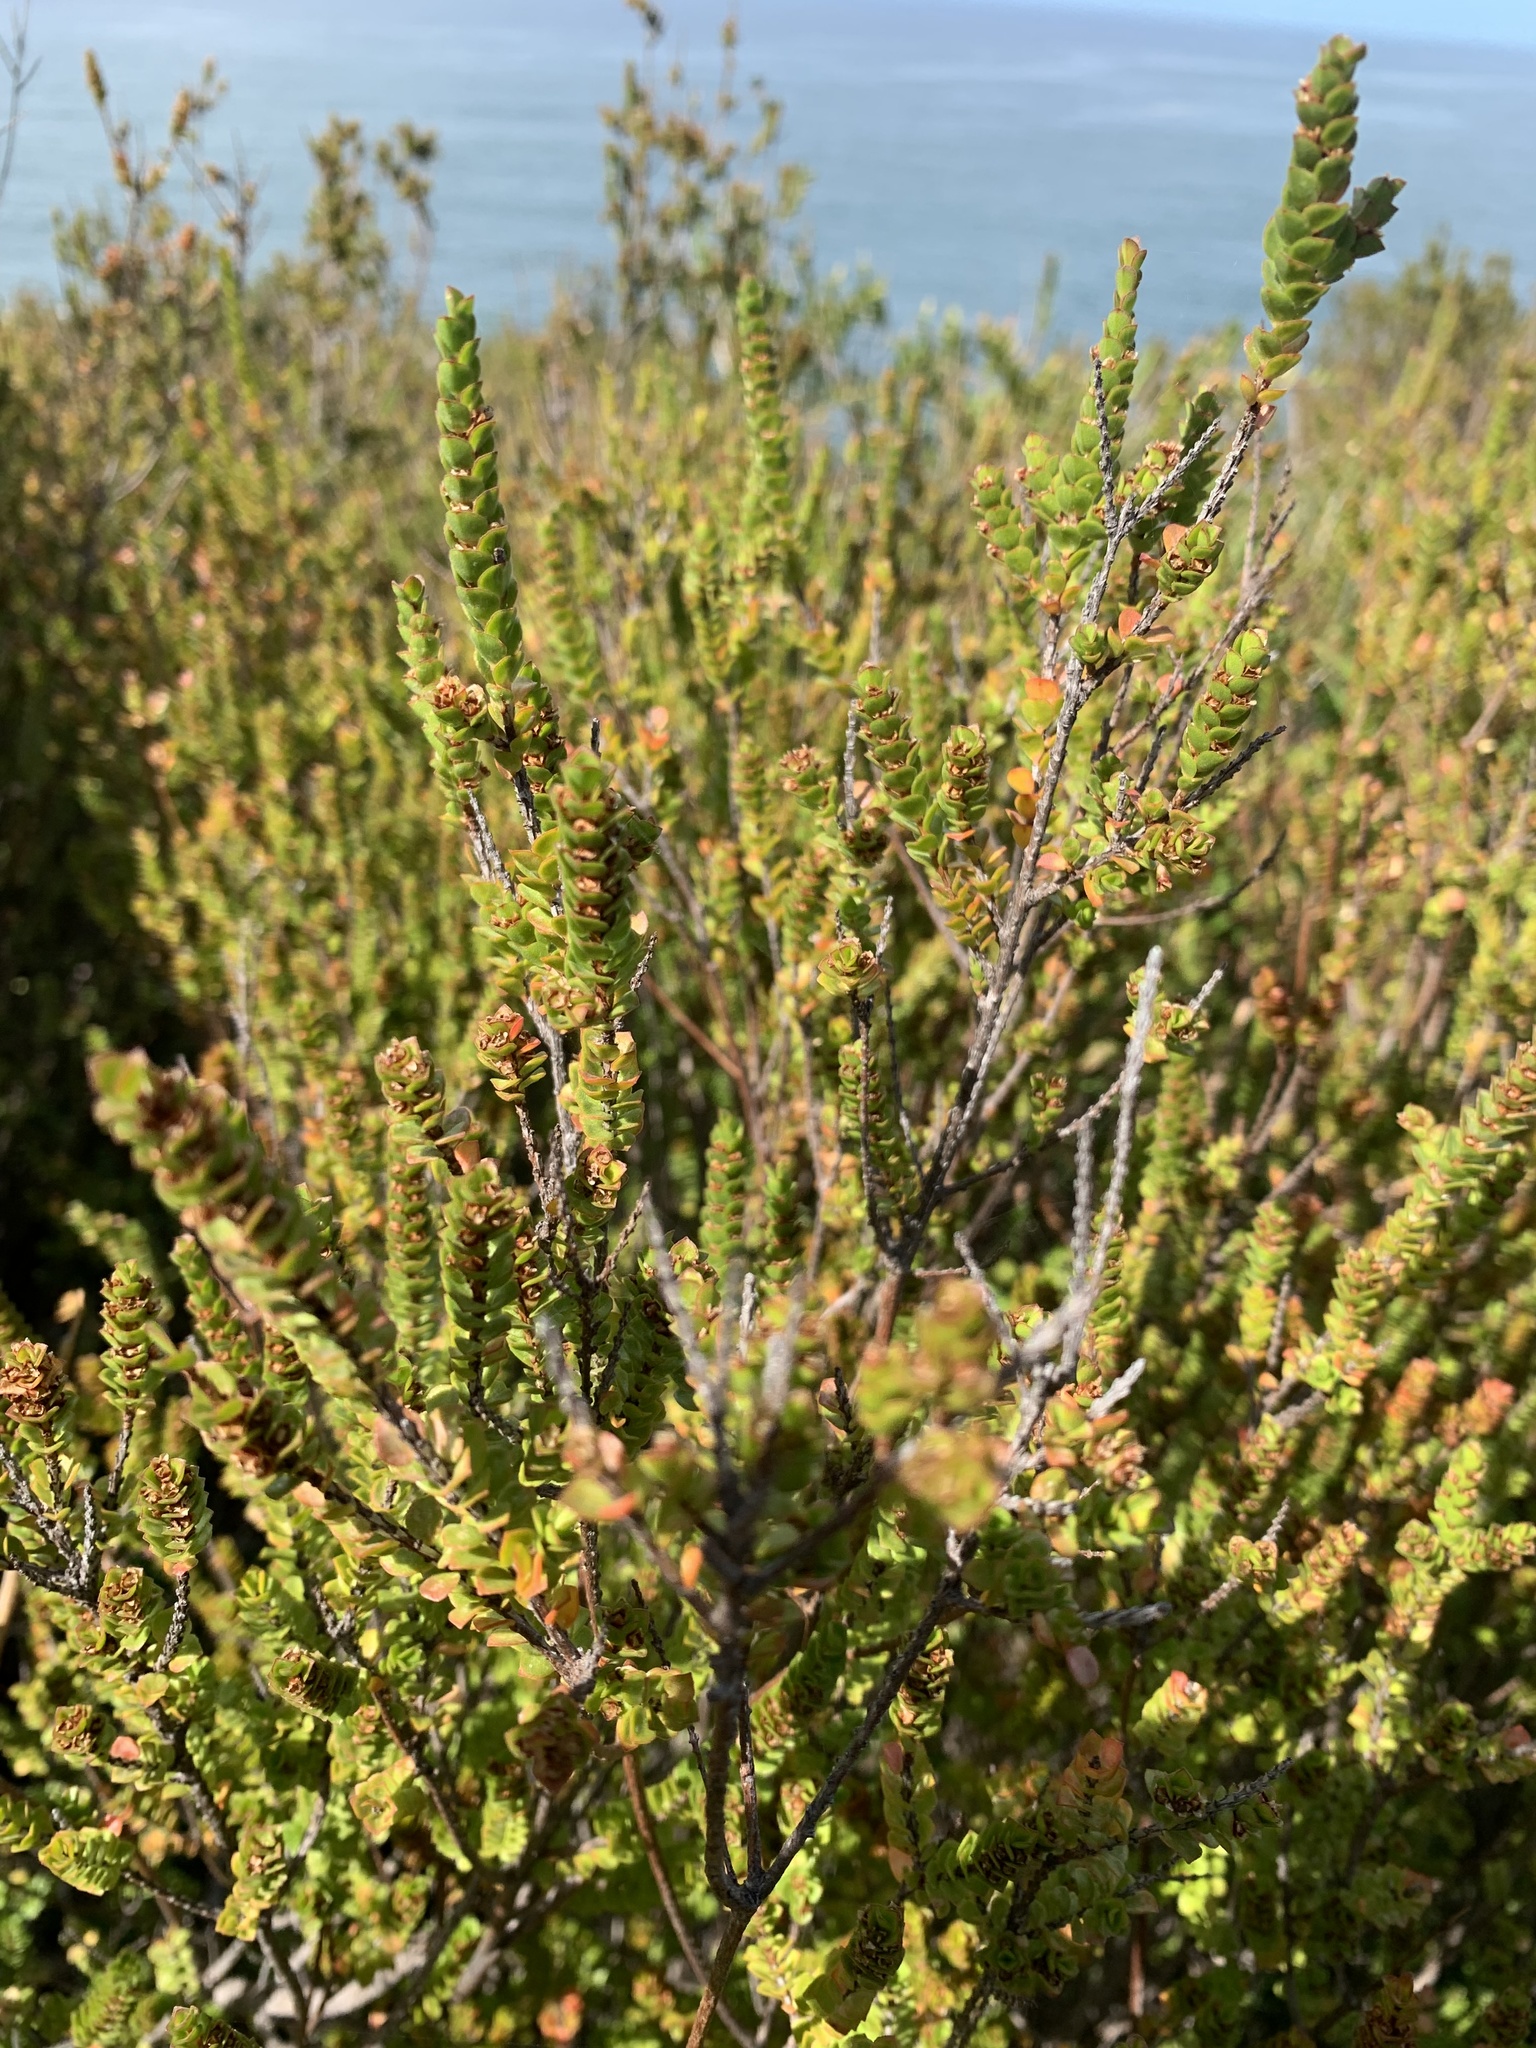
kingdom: Plantae
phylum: Tracheophyta
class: Magnoliopsida
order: Myrtales
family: Myrtaceae
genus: Baeckea
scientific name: Baeckea imbricata
